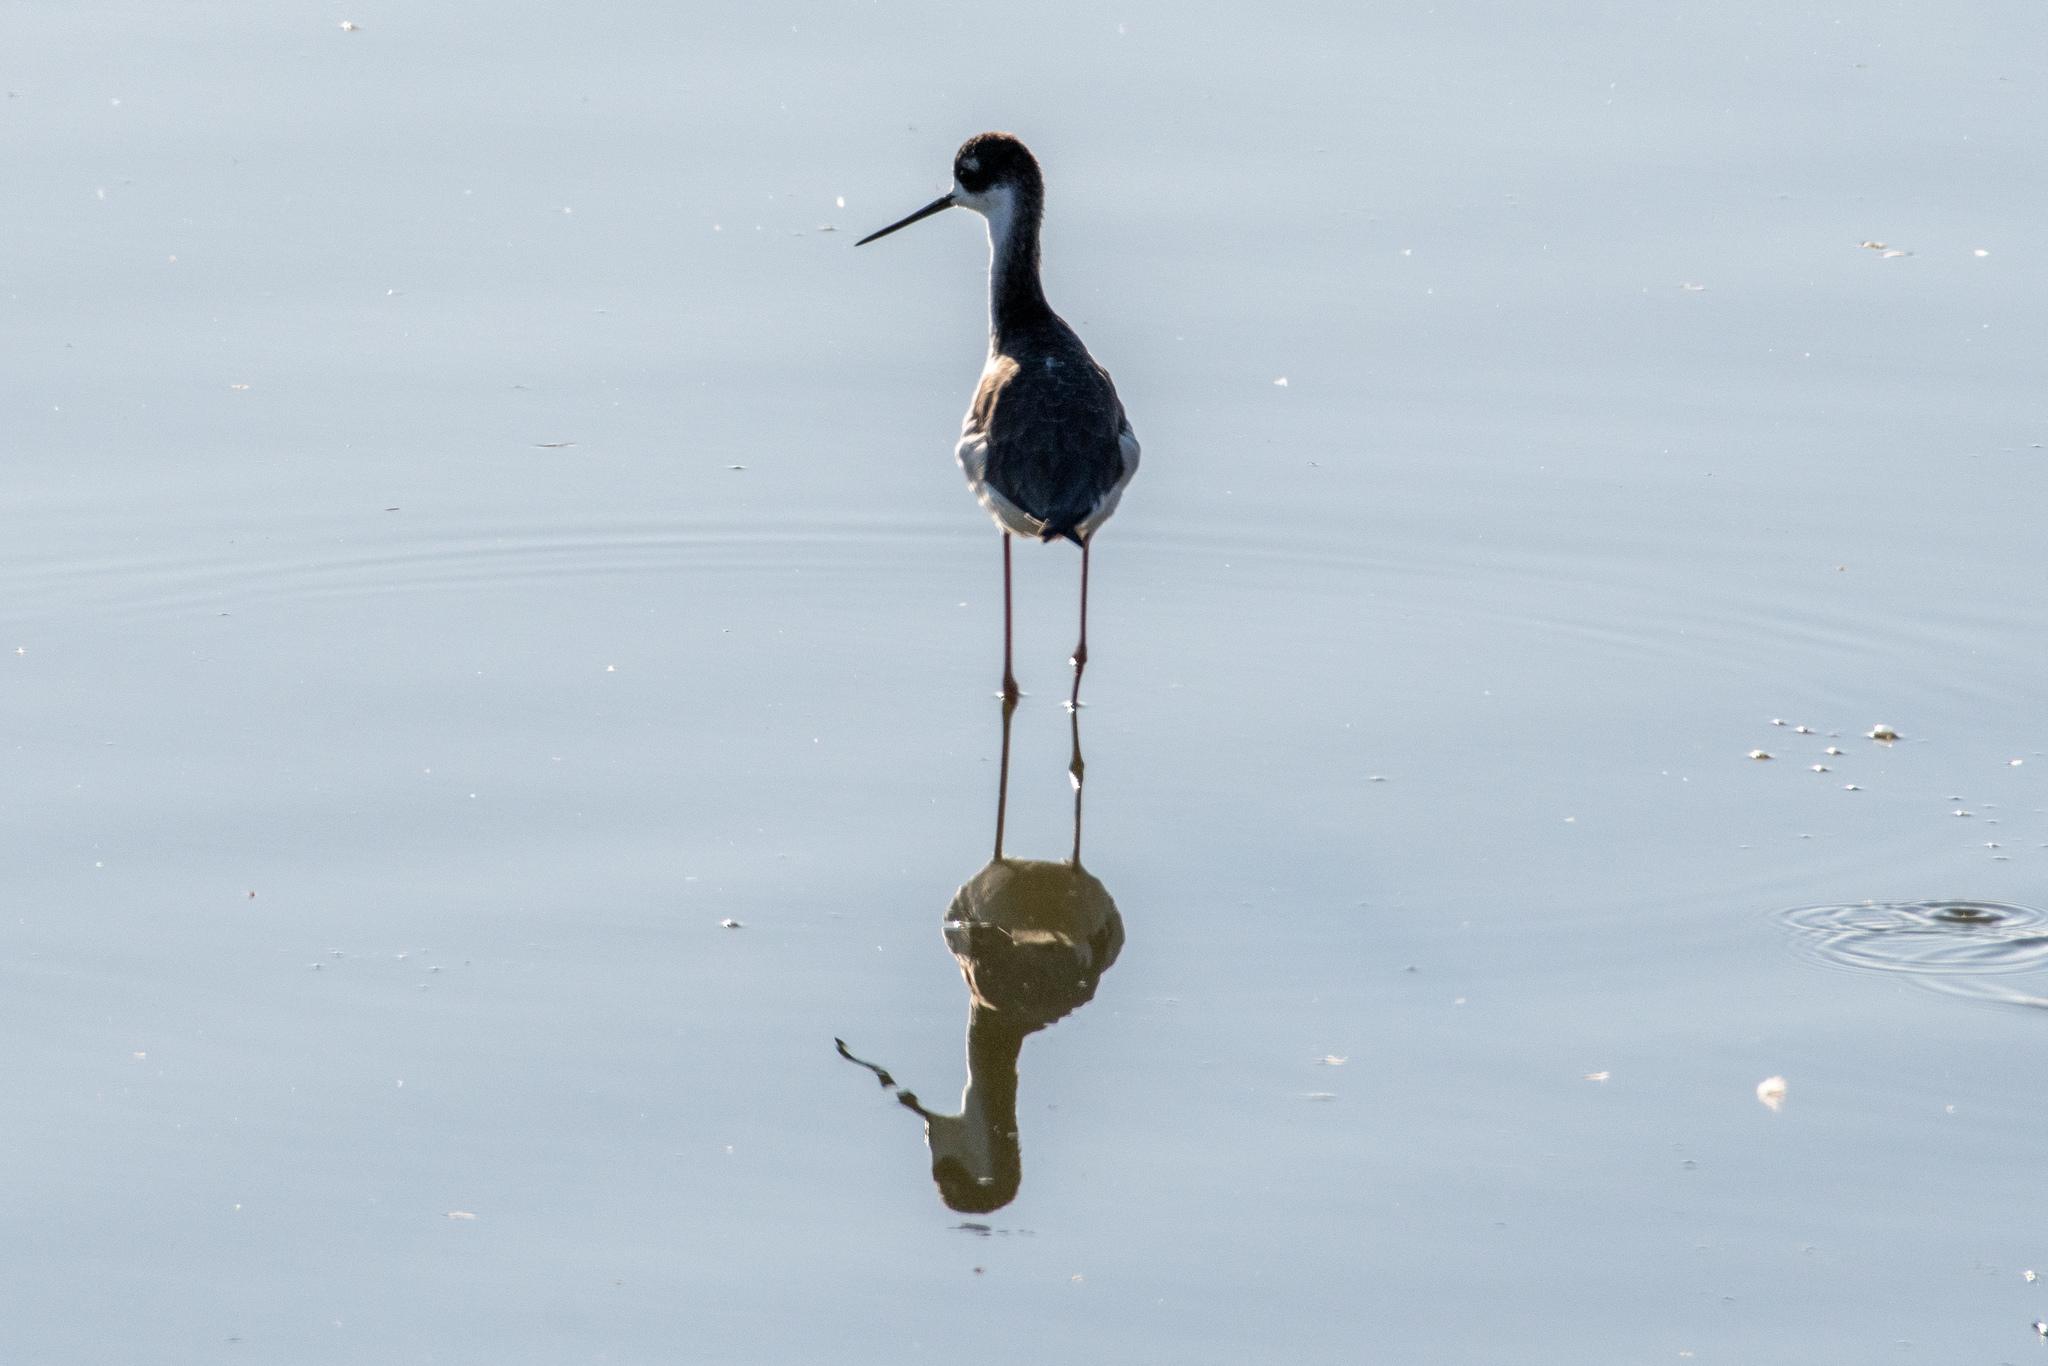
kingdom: Animalia
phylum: Chordata
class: Aves
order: Charadriiformes
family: Recurvirostridae
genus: Himantopus
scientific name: Himantopus mexicanus
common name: Black-necked stilt
